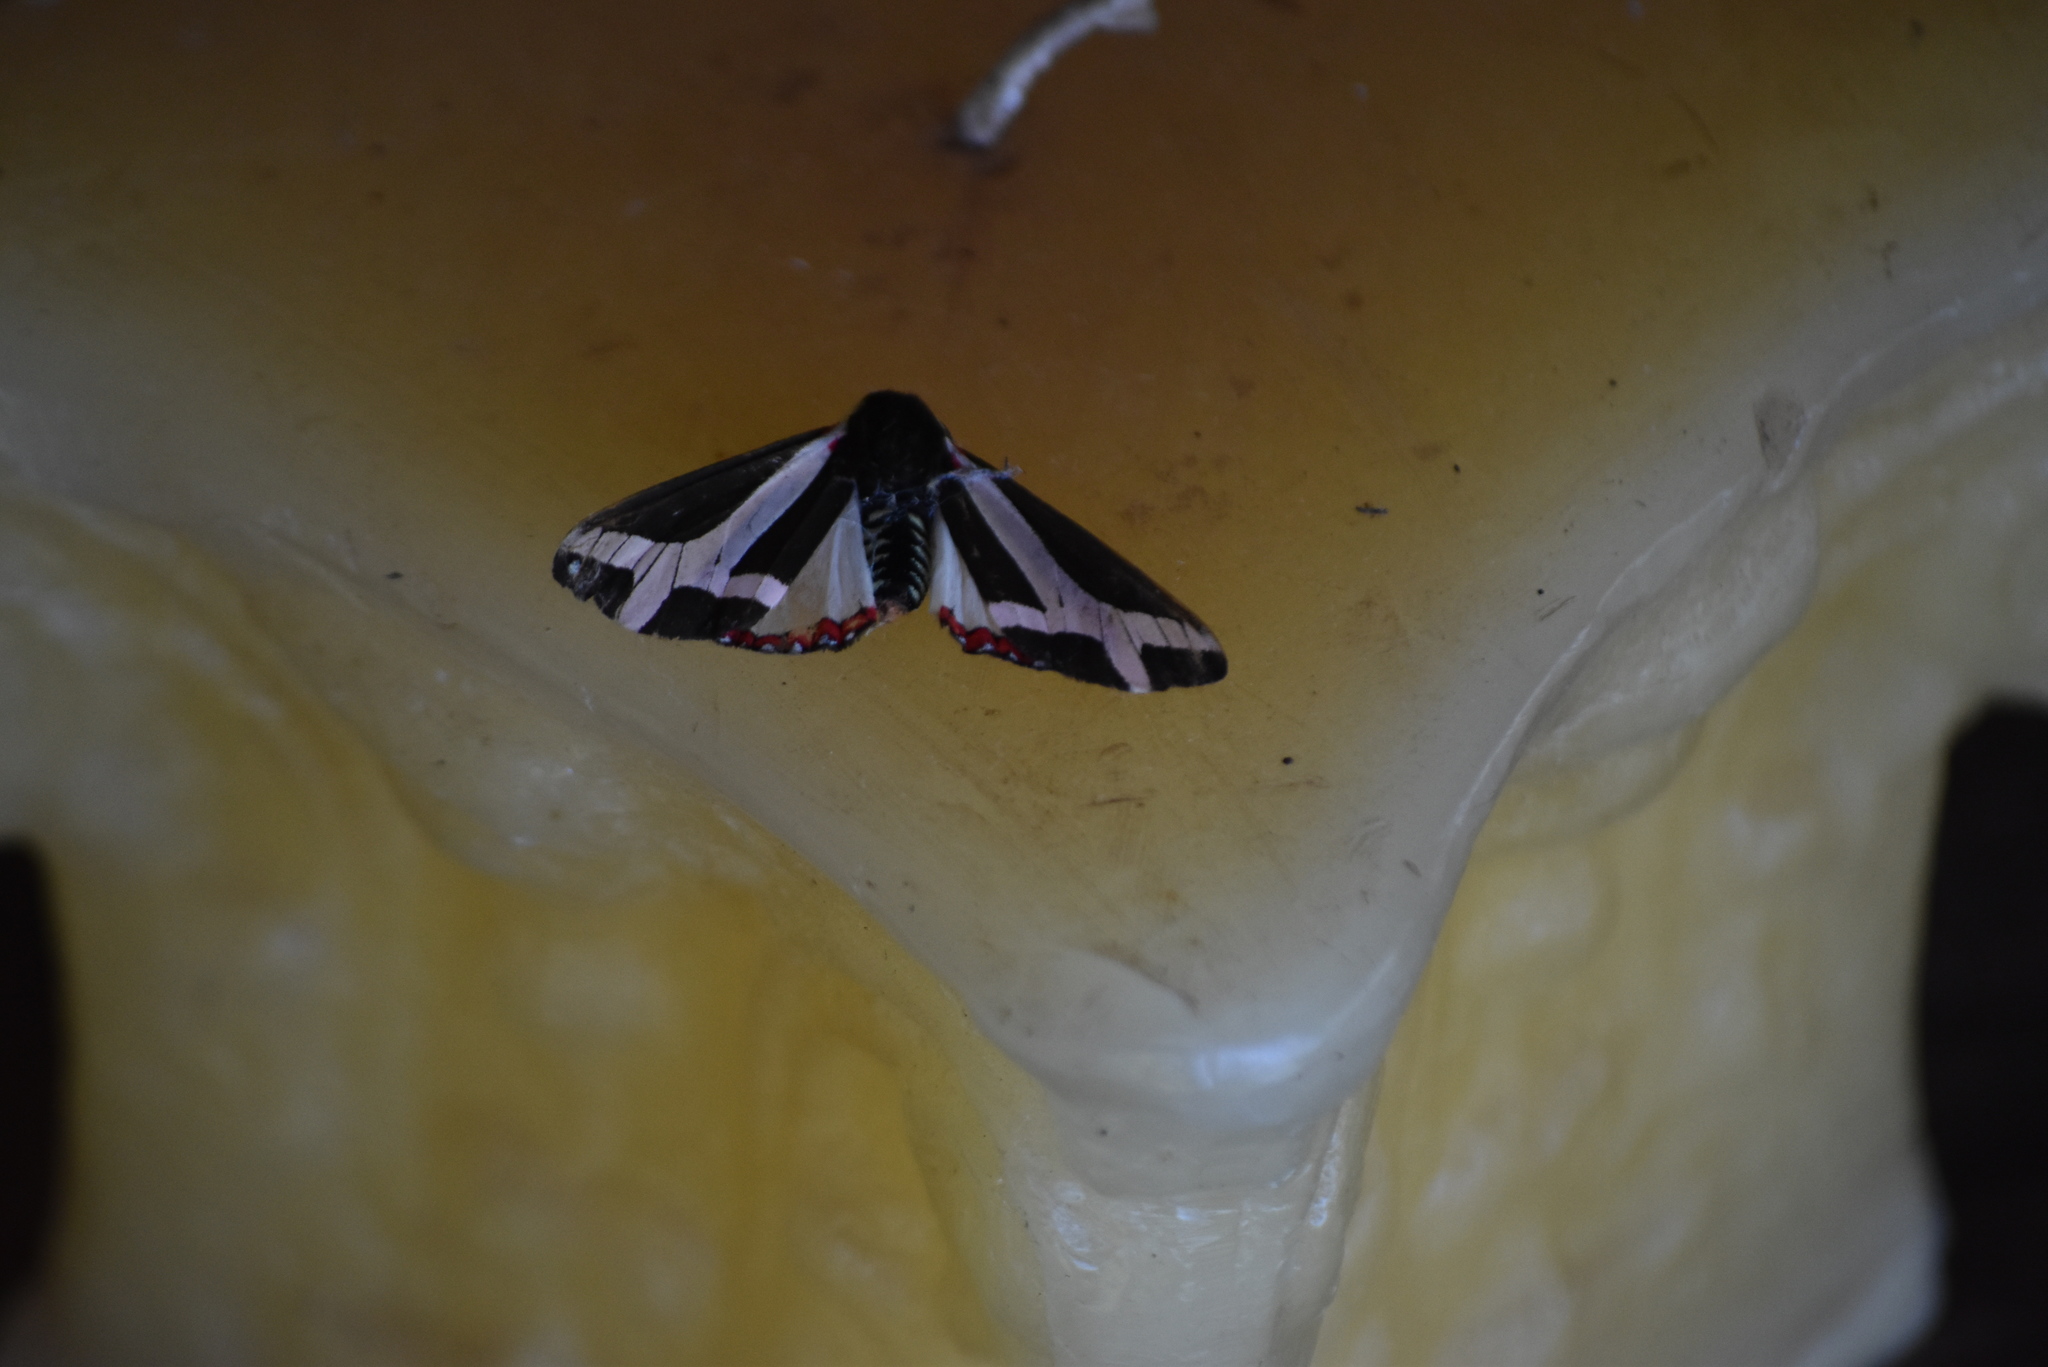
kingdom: Animalia
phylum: Arthropoda
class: Insecta
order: Lepidoptera
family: Erebidae
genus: Dysschema
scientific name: Dysschema sacrifica
